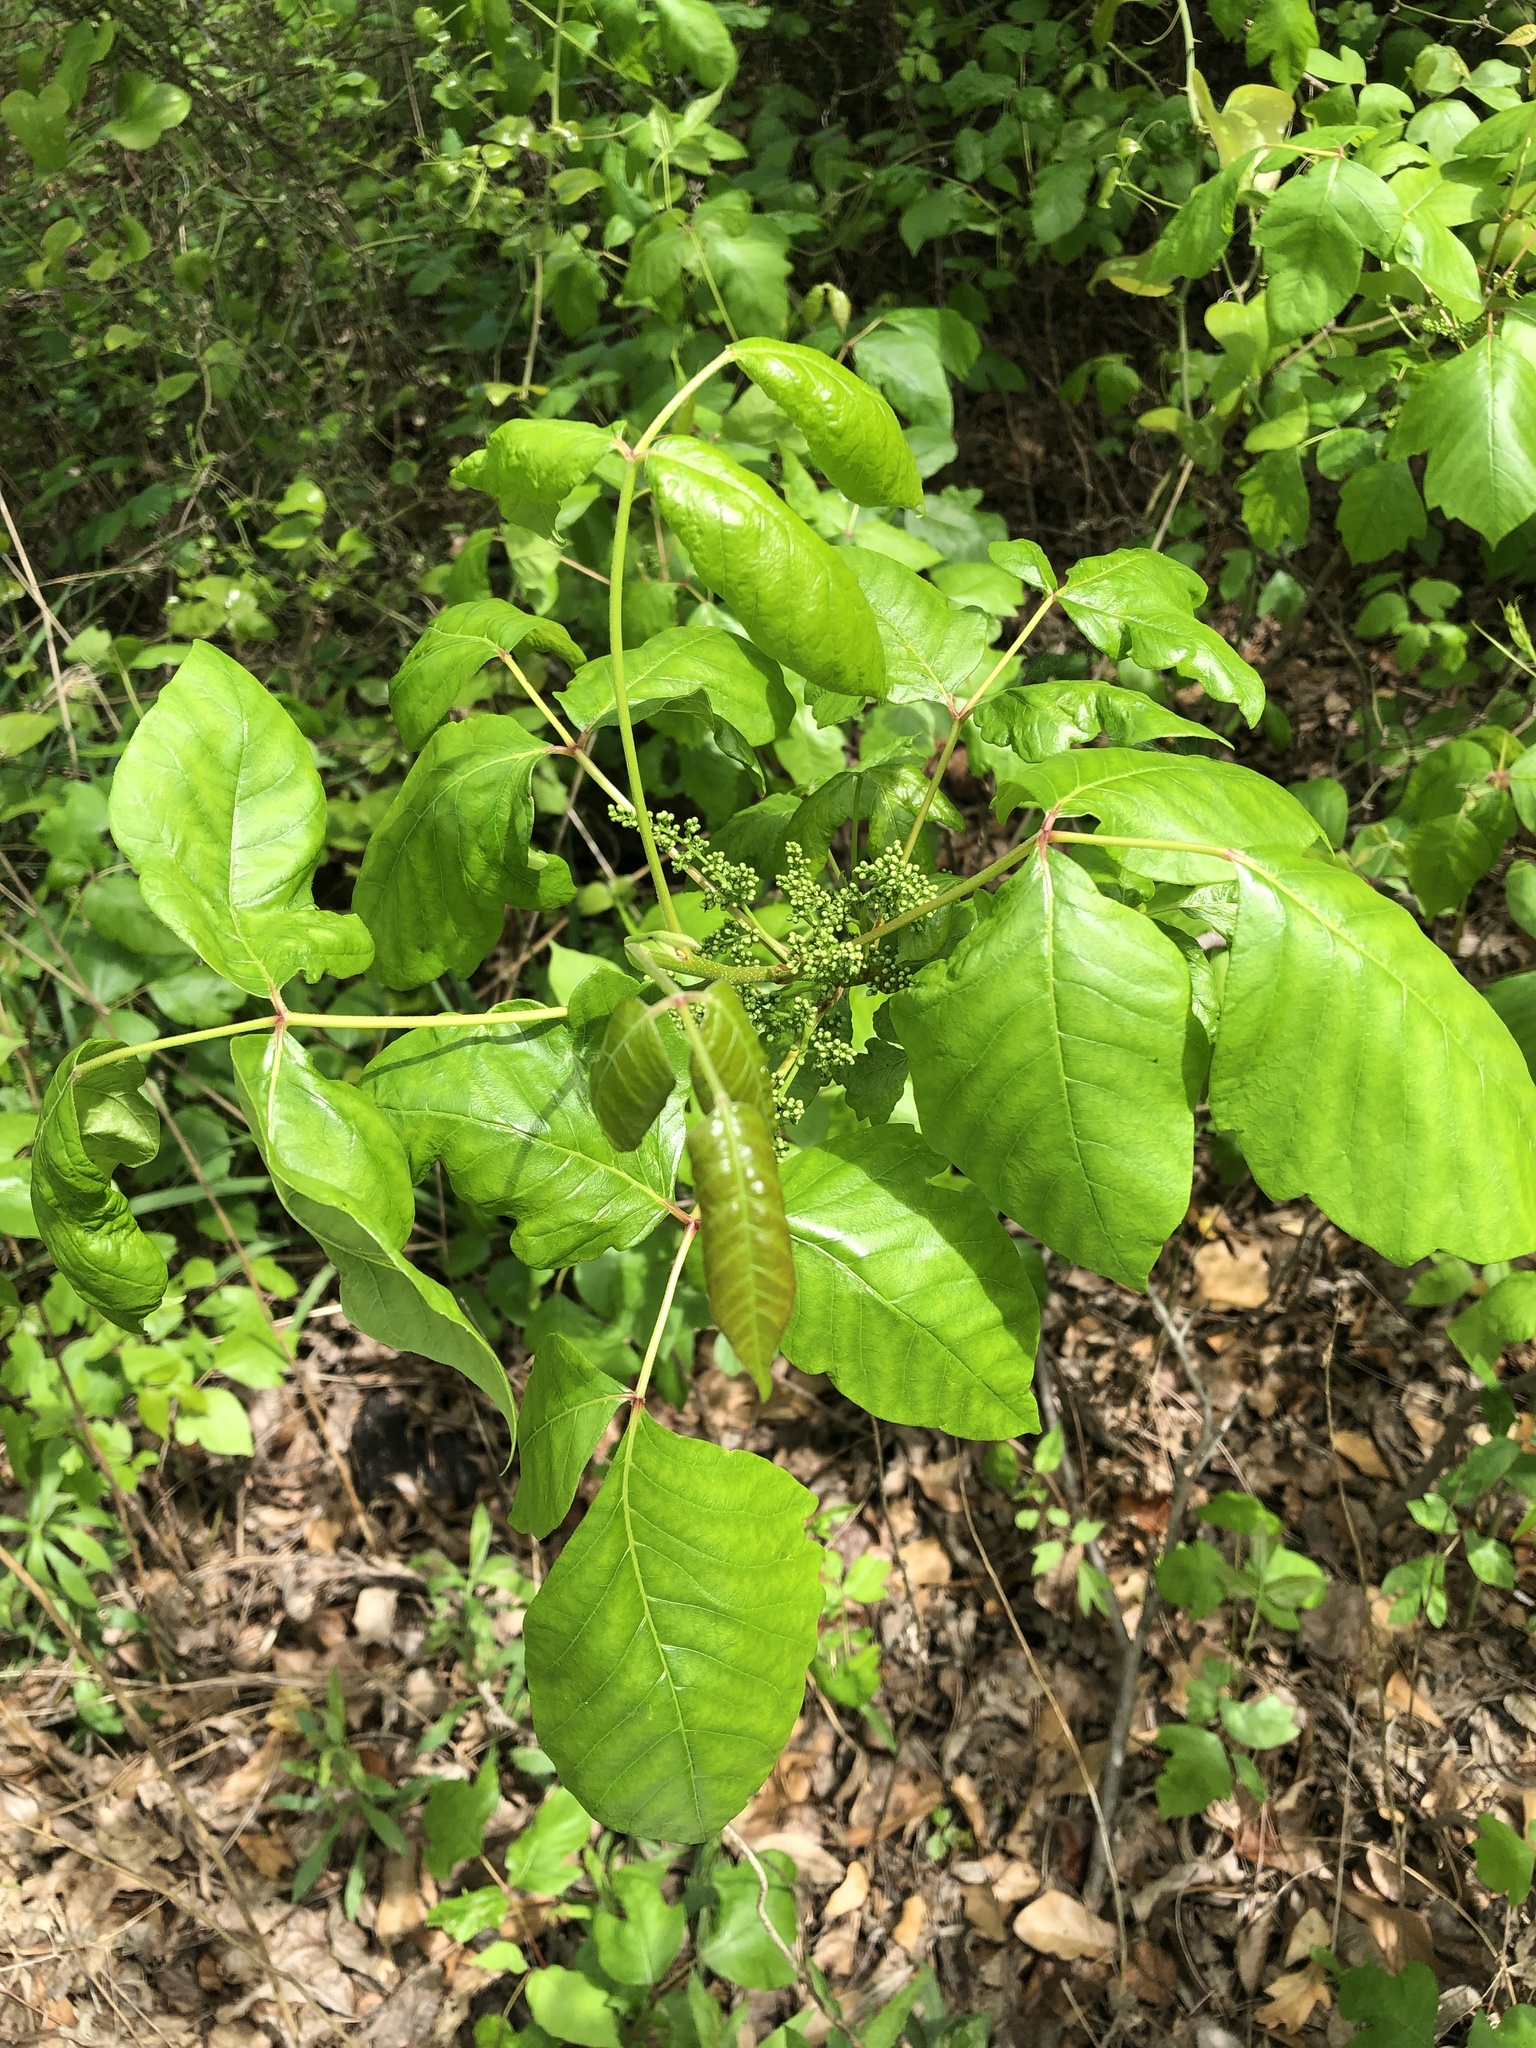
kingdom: Plantae
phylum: Tracheophyta
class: Magnoliopsida
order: Sapindales
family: Anacardiaceae
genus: Toxicodendron
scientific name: Toxicodendron radicans
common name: Poison ivy
